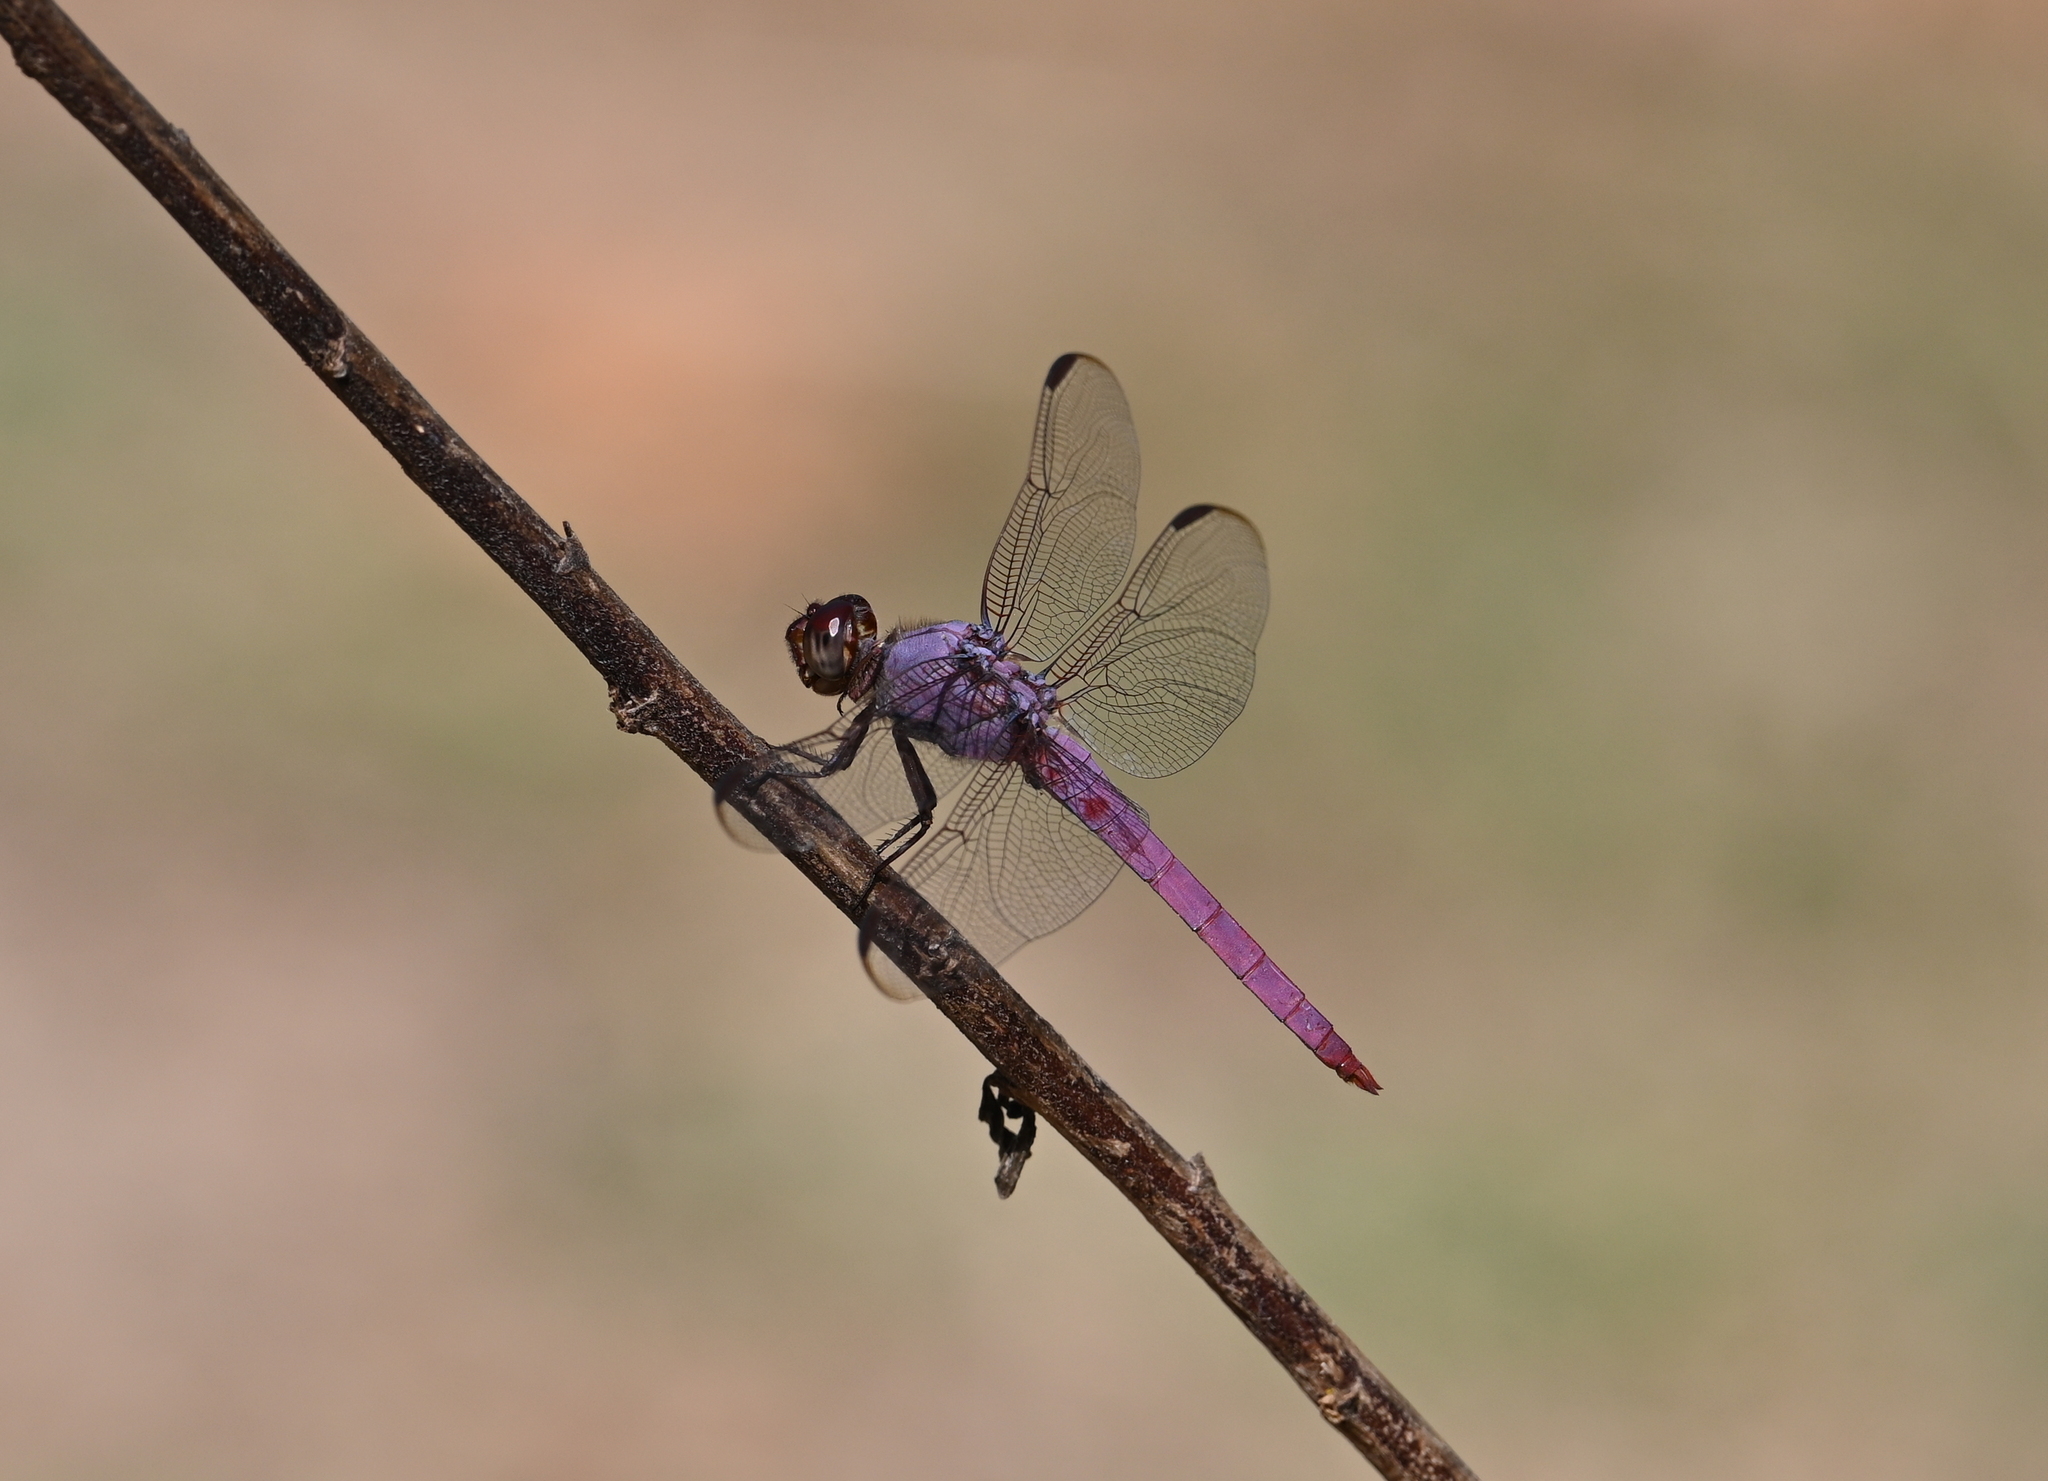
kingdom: Animalia
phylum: Arthropoda
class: Insecta
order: Odonata
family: Libellulidae
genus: Orthemis
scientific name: Orthemis ferruginea
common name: Roseate skimmer
